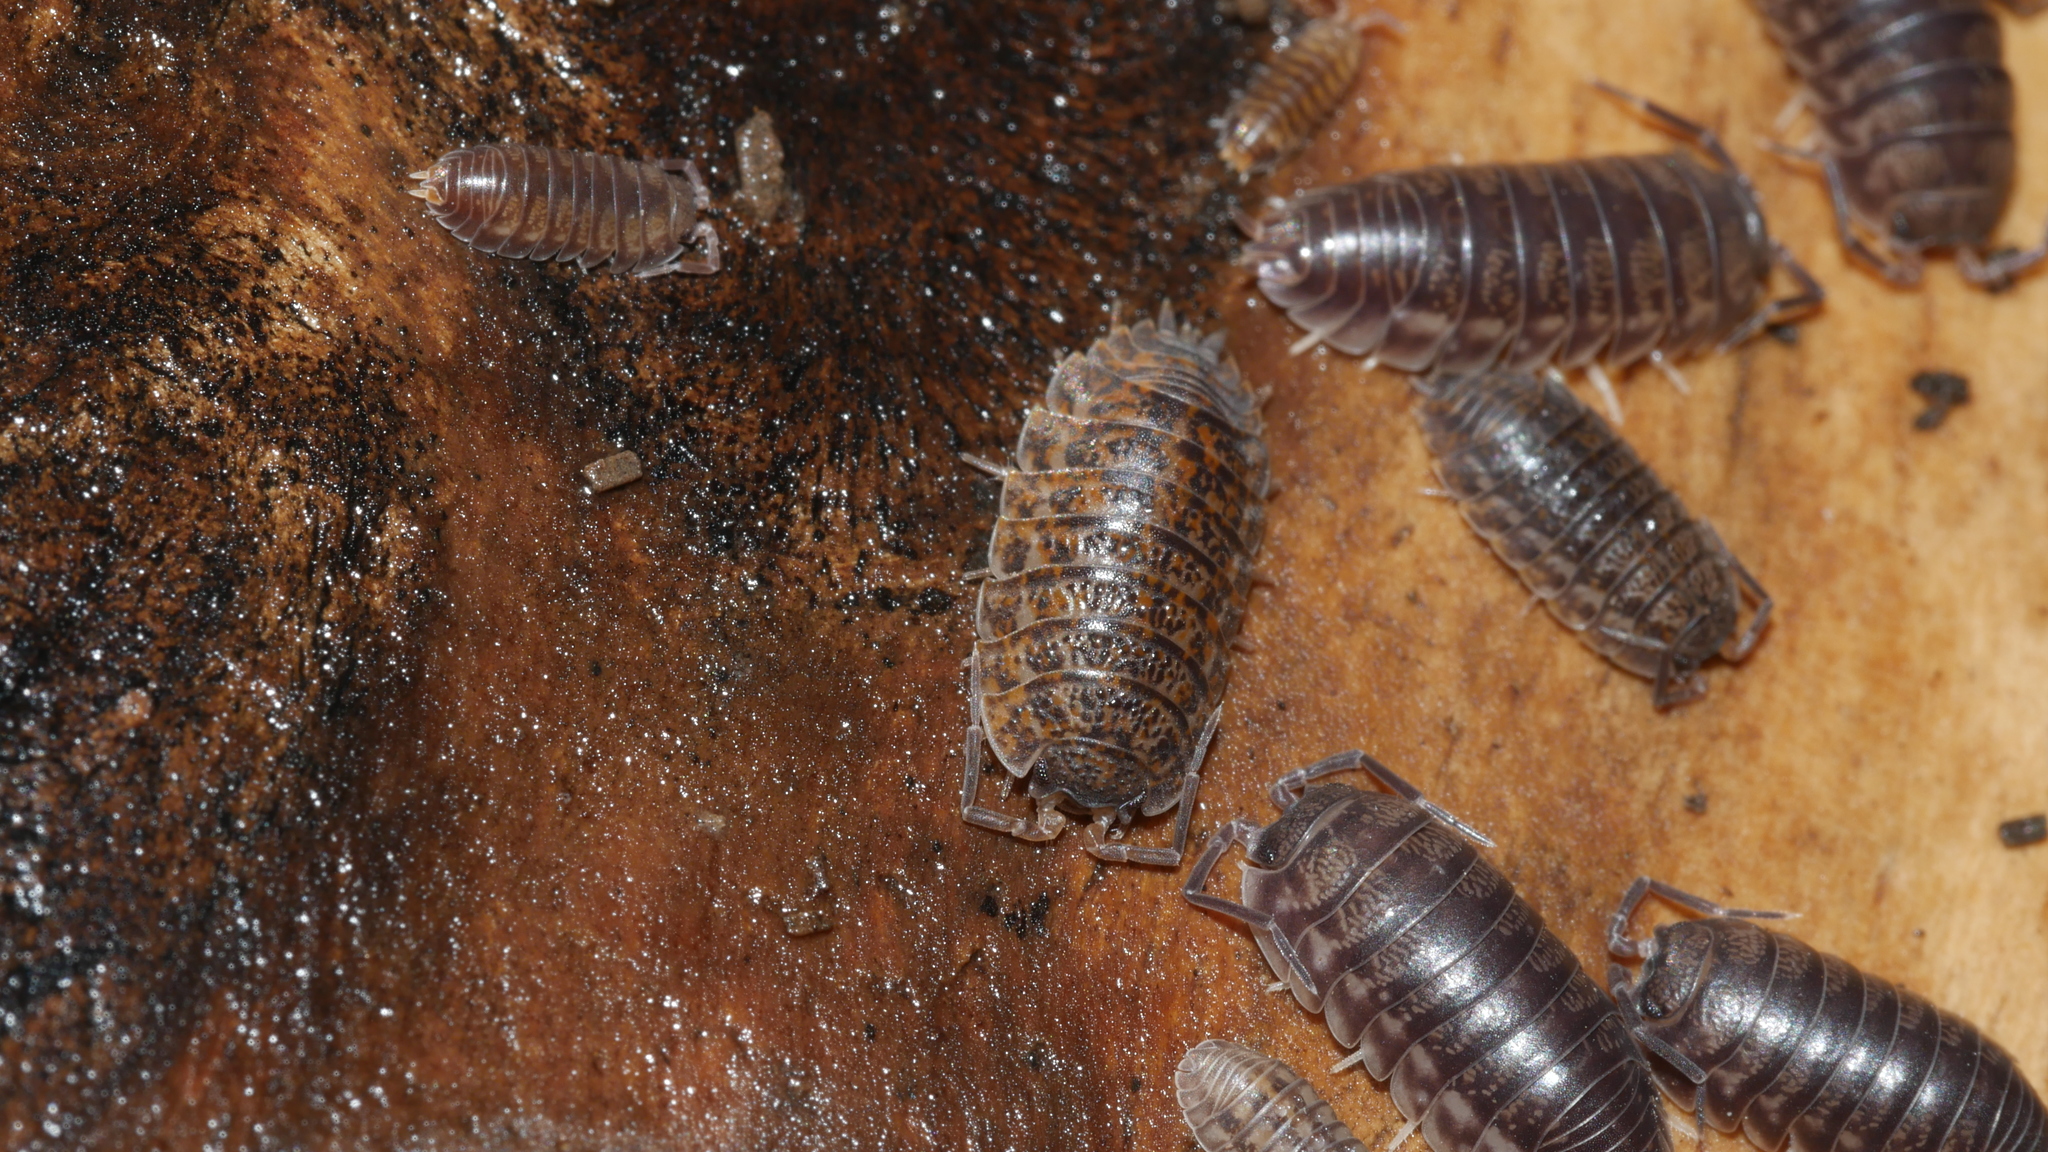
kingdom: Animalia
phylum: Arthropoda
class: Malacostraca
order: Isopoda
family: Trachelipodidae
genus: Trachelipus
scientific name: Trachelipus rathkii
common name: Isopod
